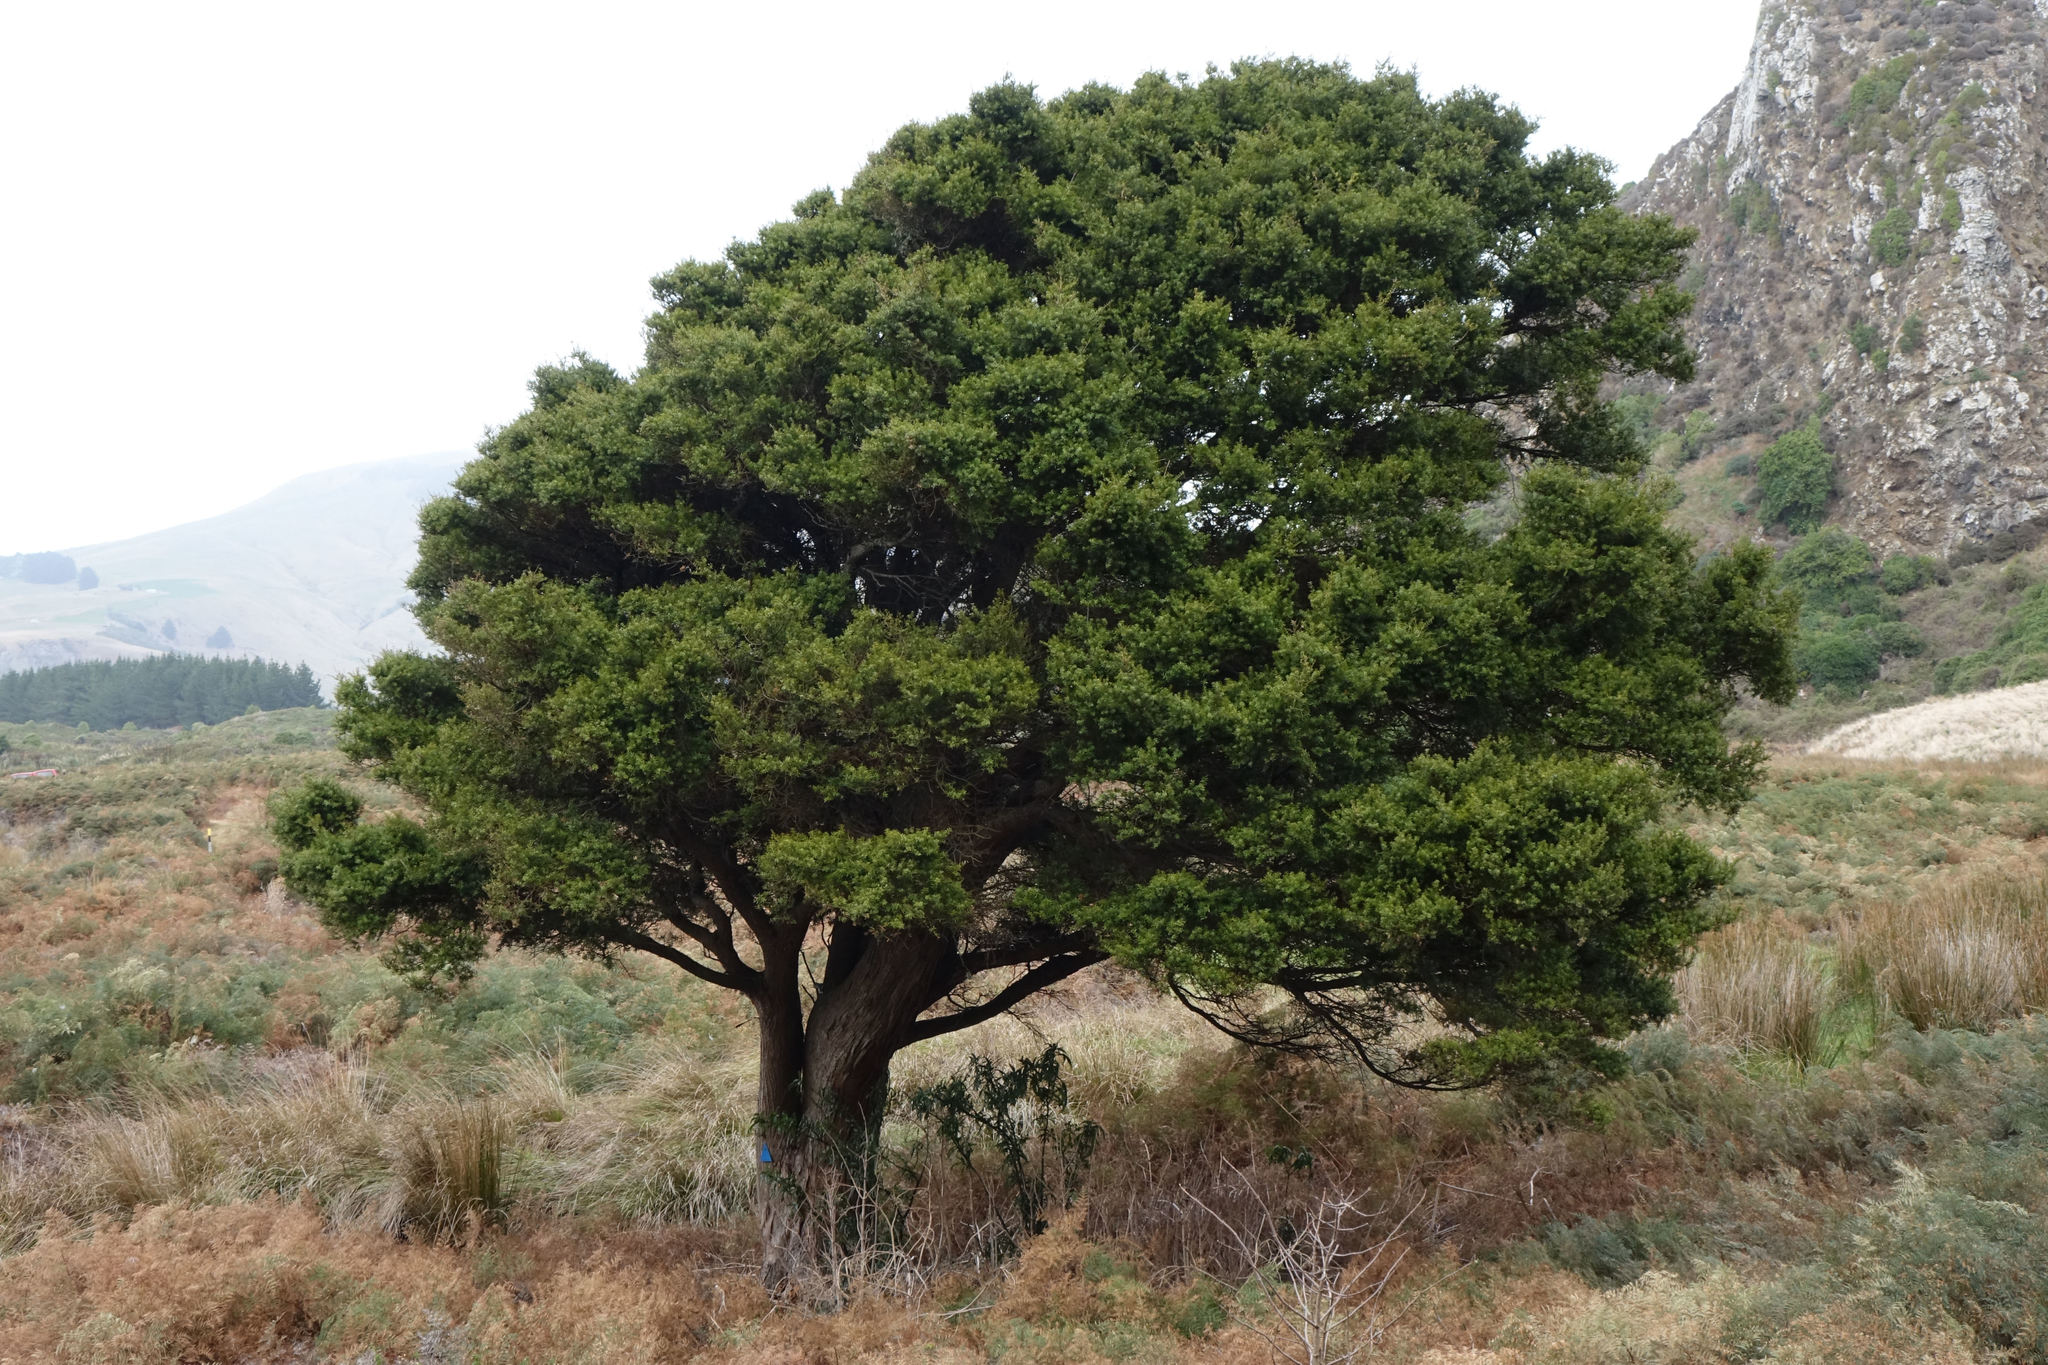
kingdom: Plantae
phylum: Tracheophyta
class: Pinopsida
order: Pinales
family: Podocarpaceae
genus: Podocarpus
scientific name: Podocarpus laetus
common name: Hall's totara
